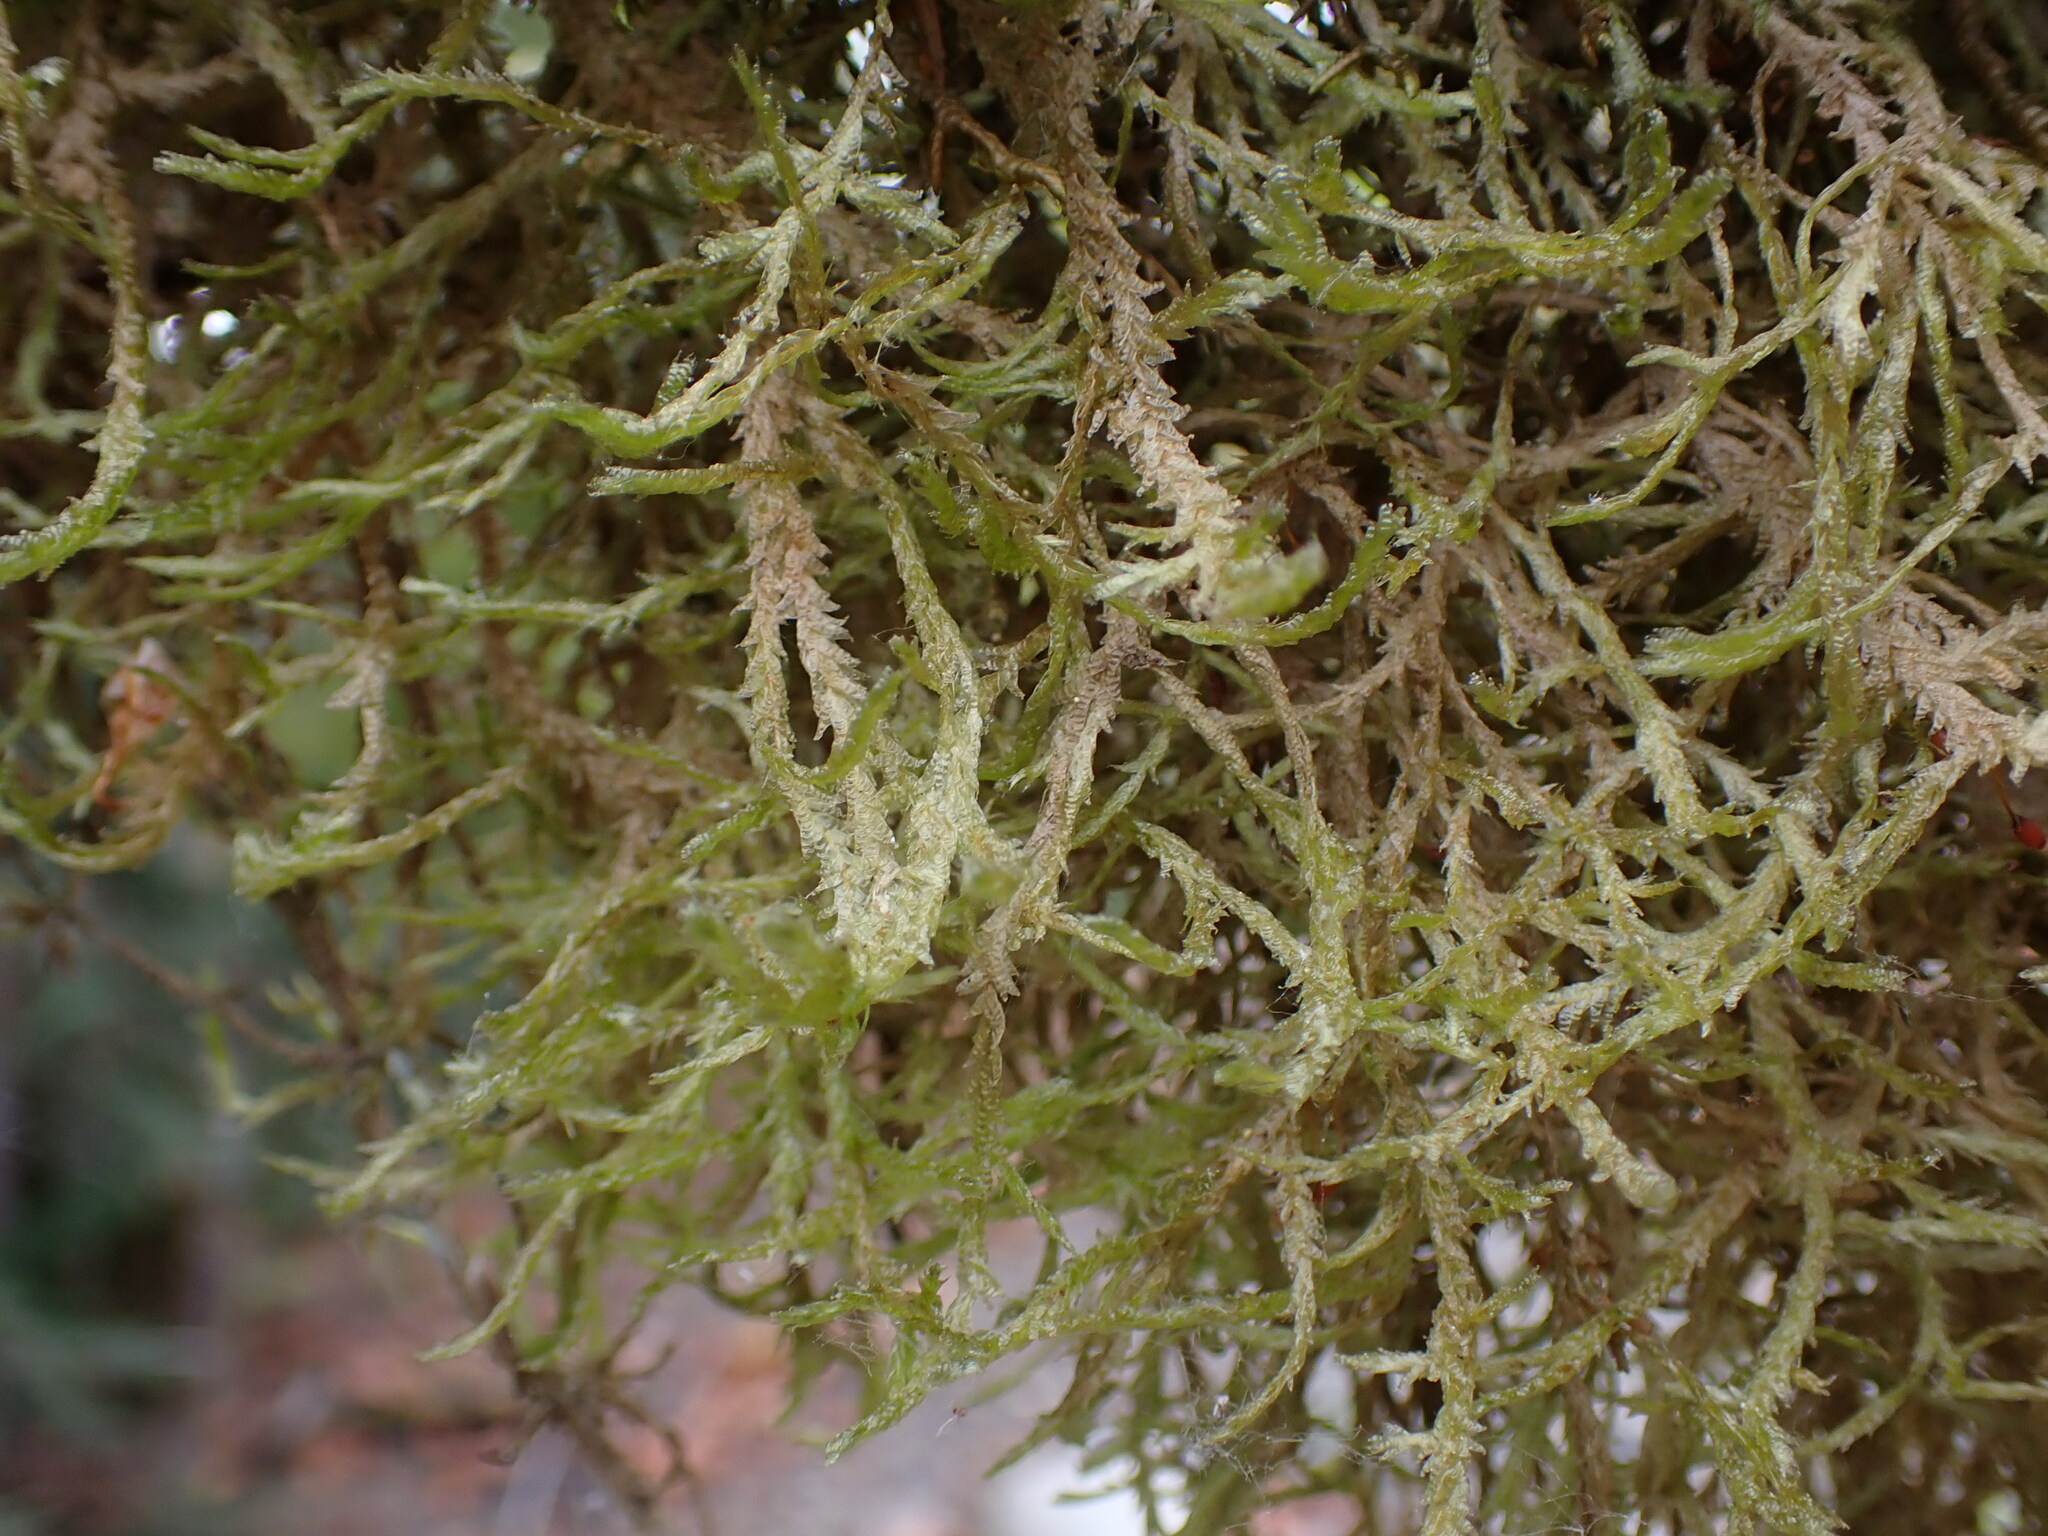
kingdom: Plantae
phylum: Bryophyta
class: Bryopsida
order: Hypnales
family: Neckeraceae
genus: Neckera
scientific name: Neckera douglasii
